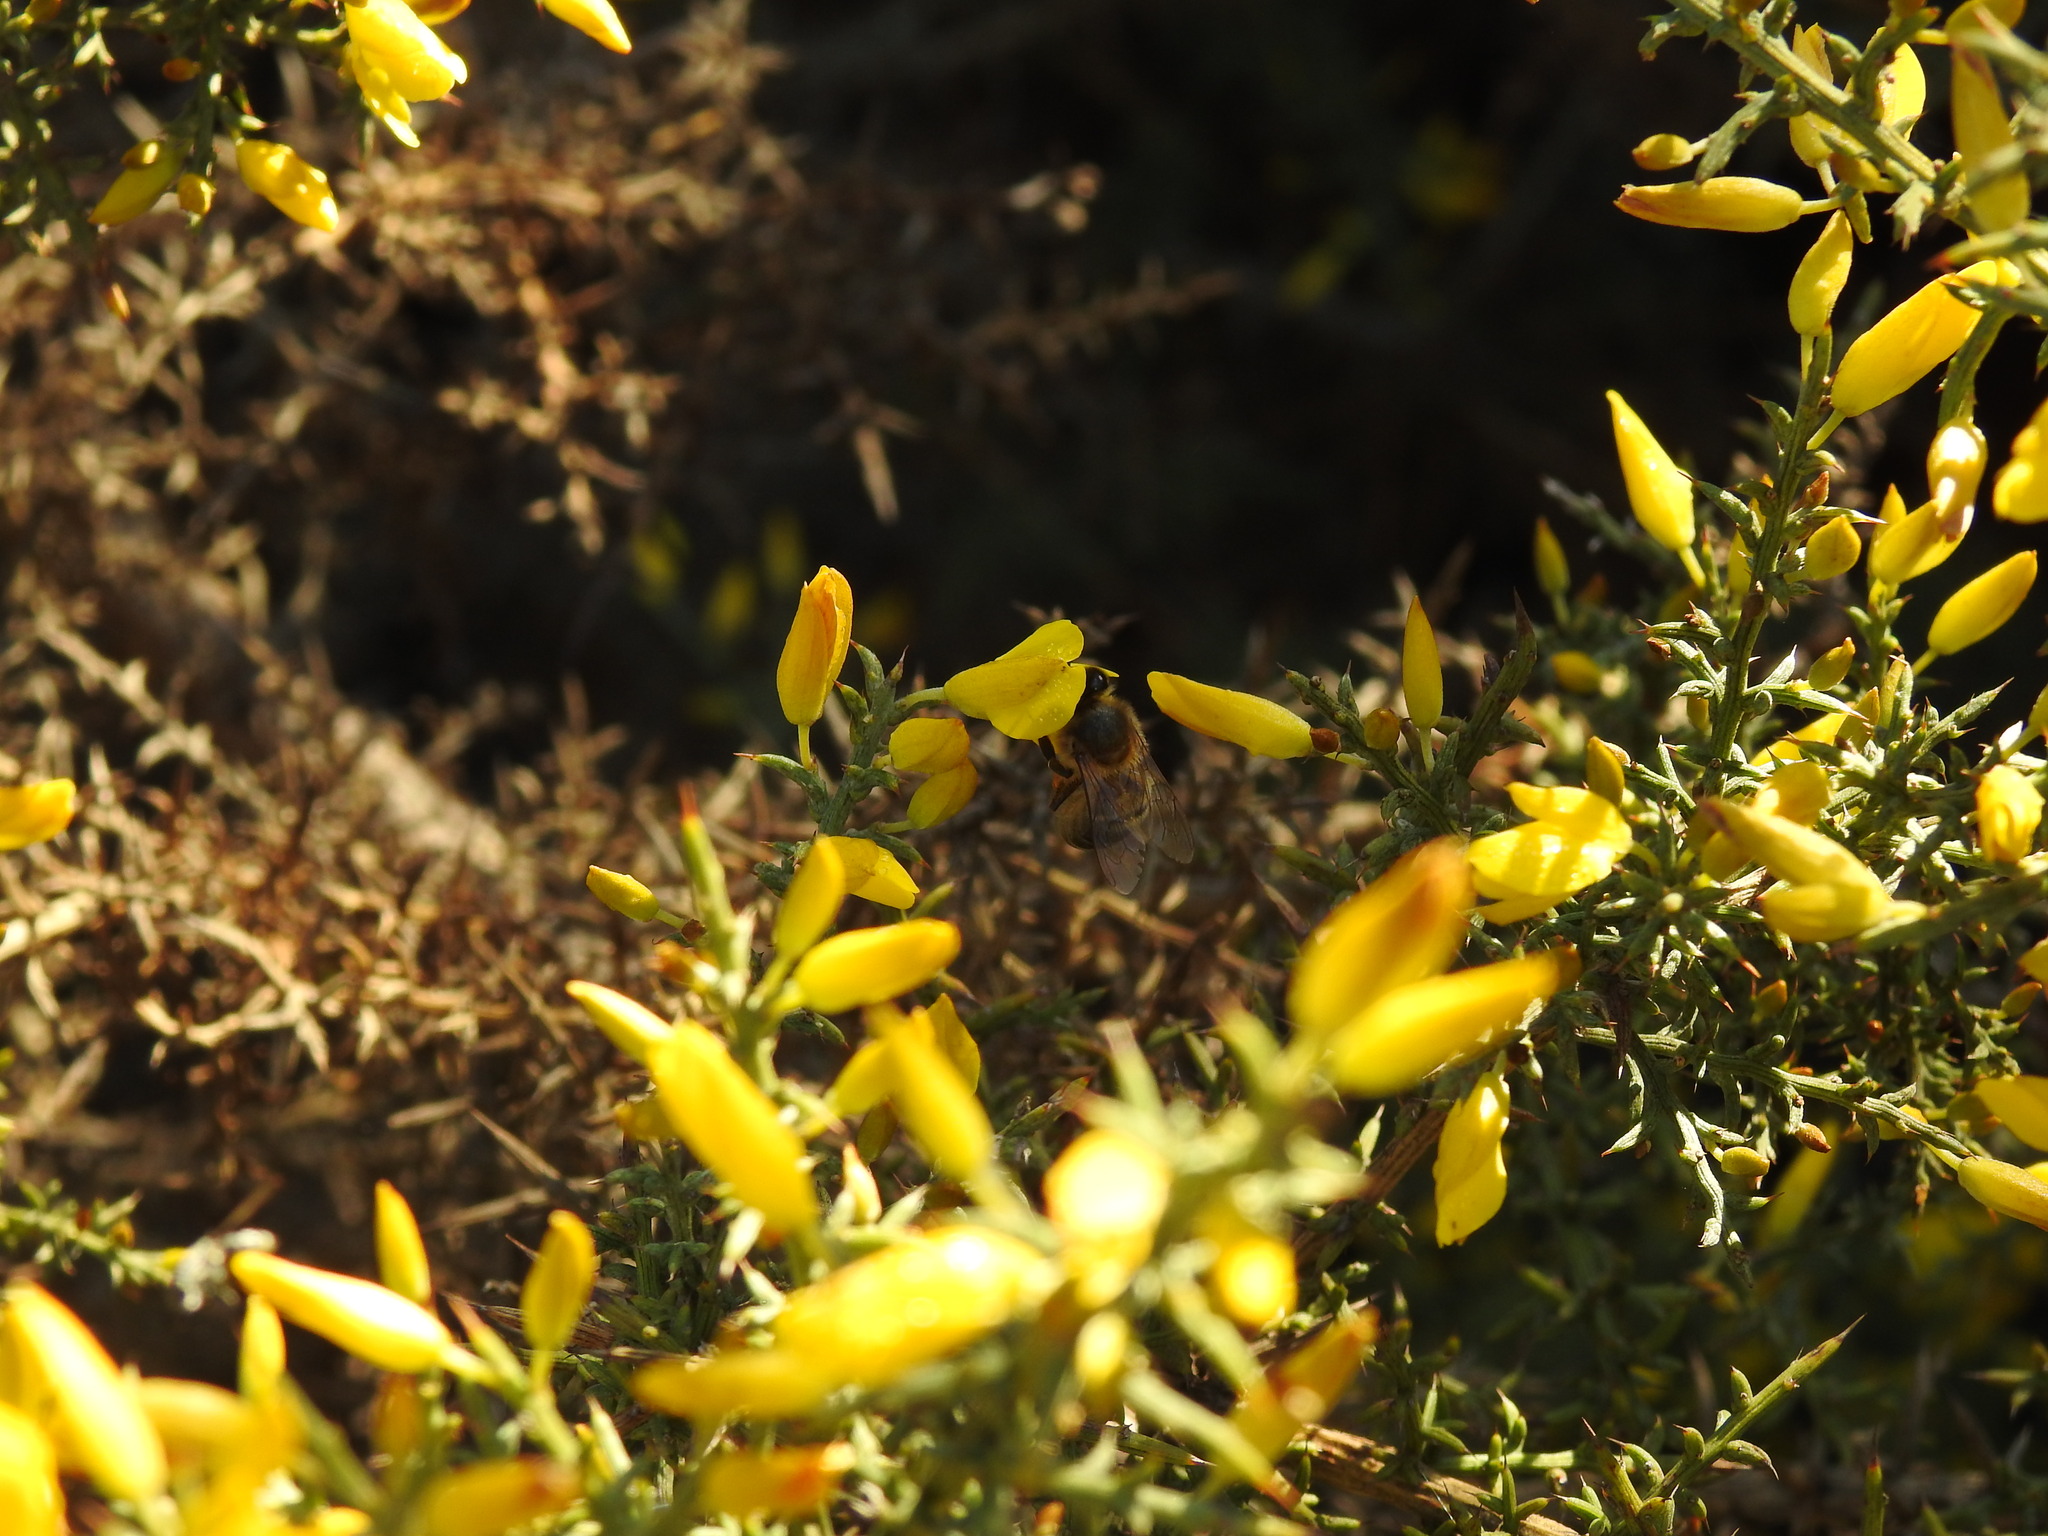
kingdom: Animalia
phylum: Arthropoda
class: Insecta
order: Hymenoptera
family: Apidae
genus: Apis
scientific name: Apis mellifera
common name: Honey bee
